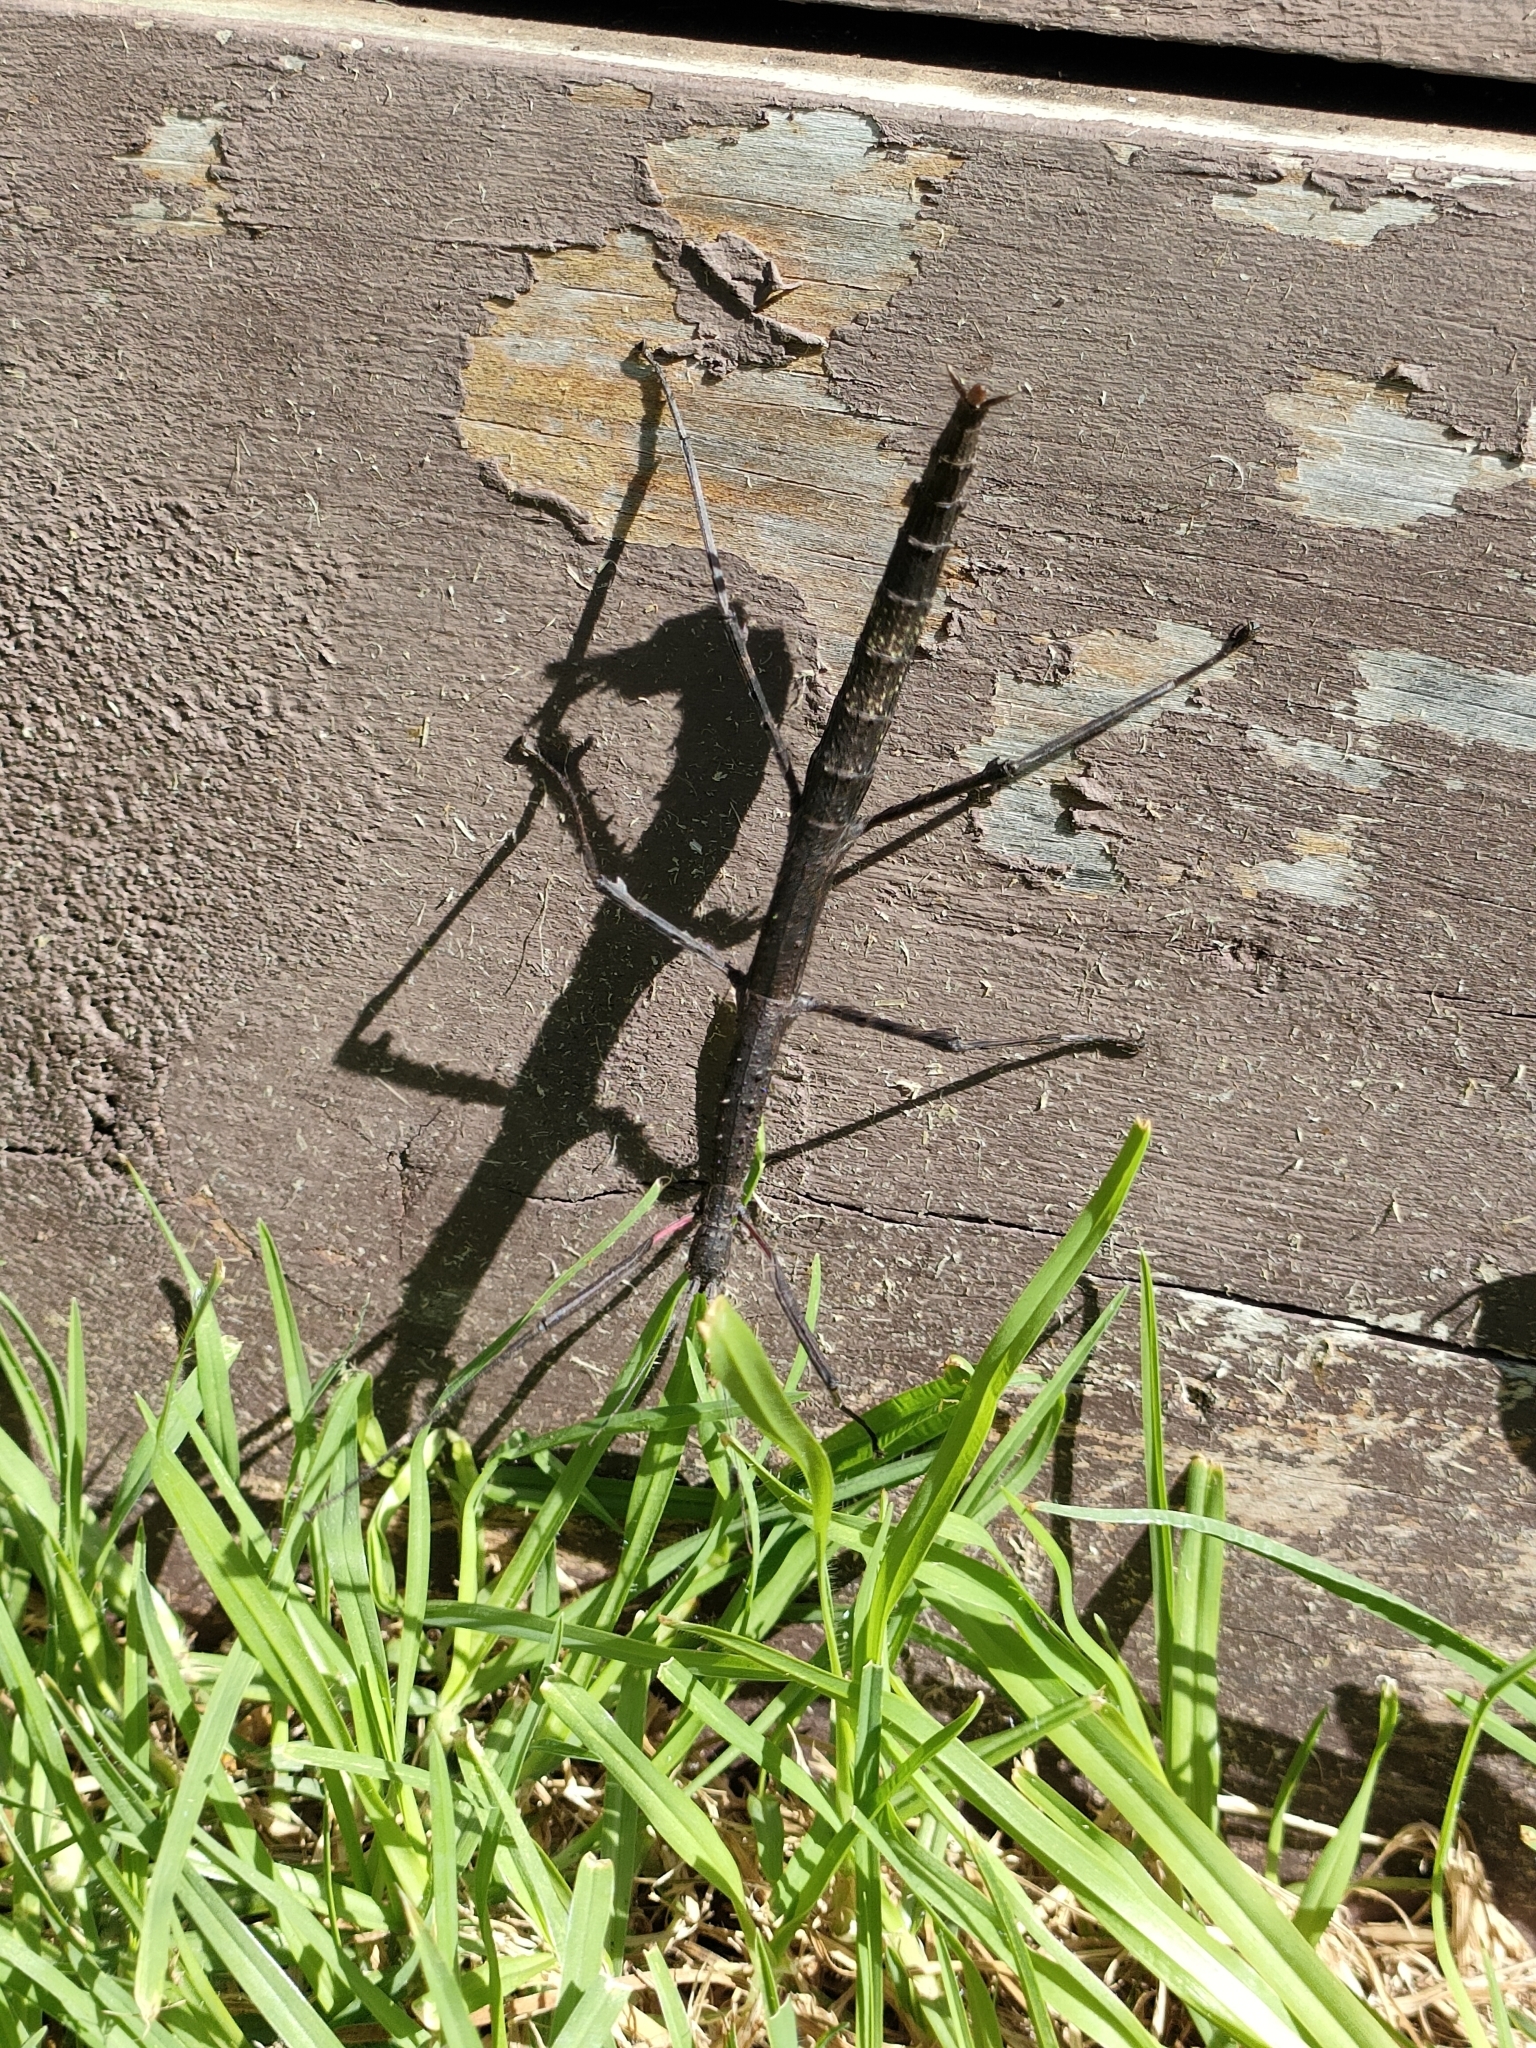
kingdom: Animalia
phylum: Arthropoda
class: Insecta
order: Phasmida
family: Phasmatidae
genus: Clitarchus
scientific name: Clitarchus hookeri
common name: Smooth stick insect
